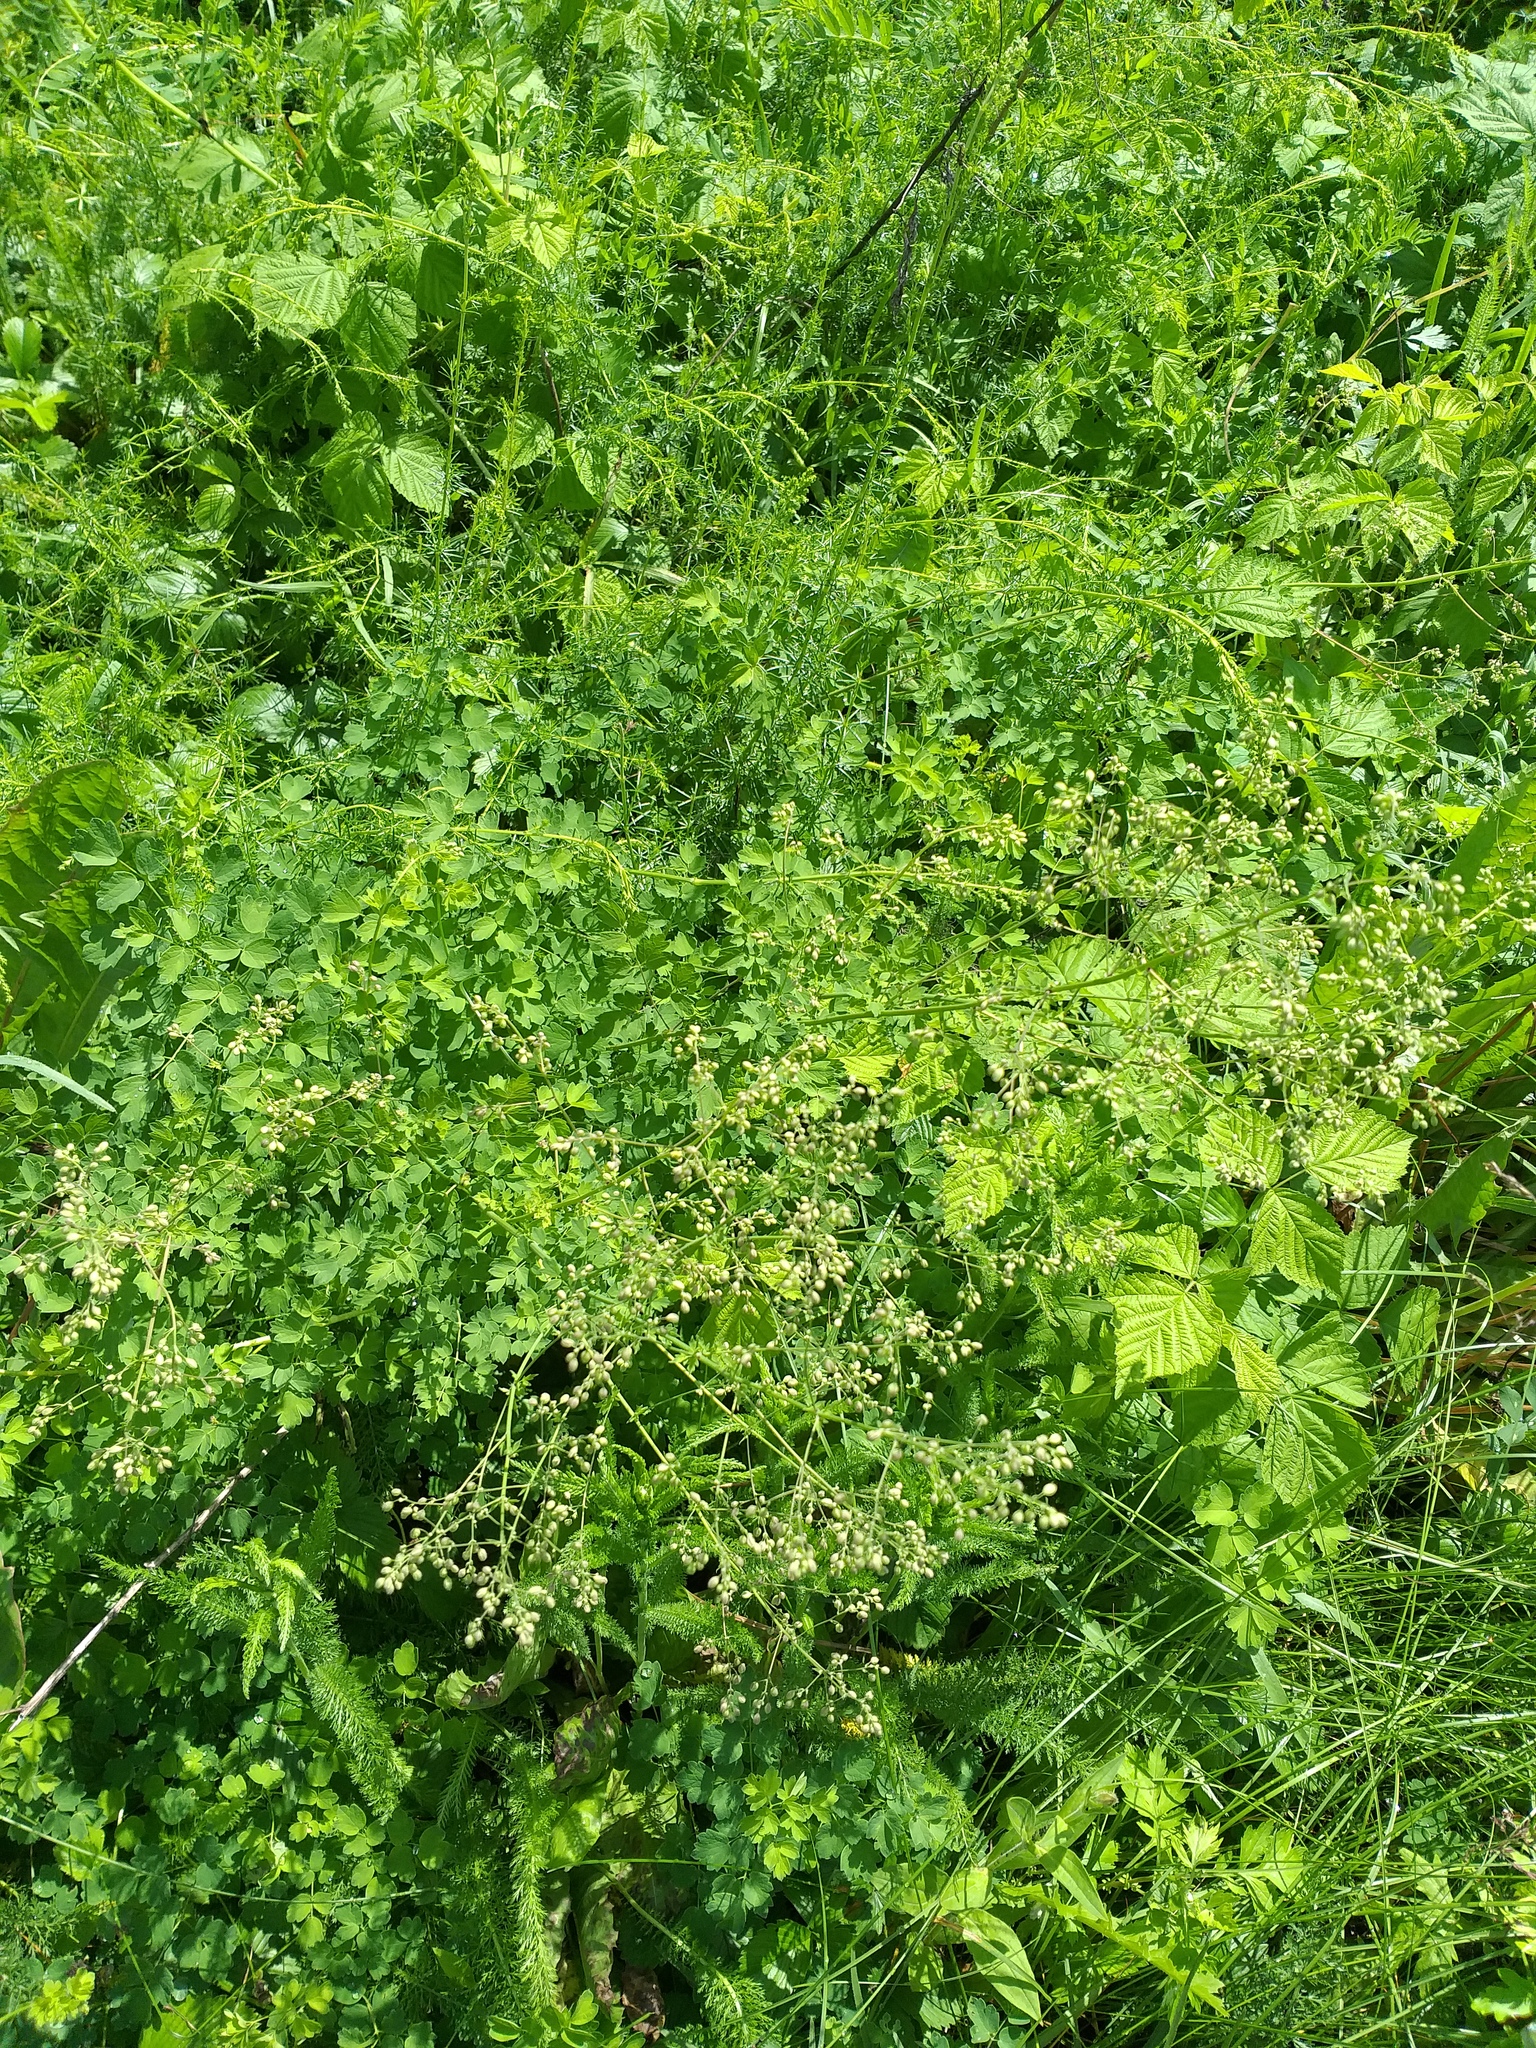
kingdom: Plantae
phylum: Tracheophyta
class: Magnoliopsida
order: Ranunculales
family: Ranunculaceae
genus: Thalictrum
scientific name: Thalictrum minus
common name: Lesser meadow-rue
